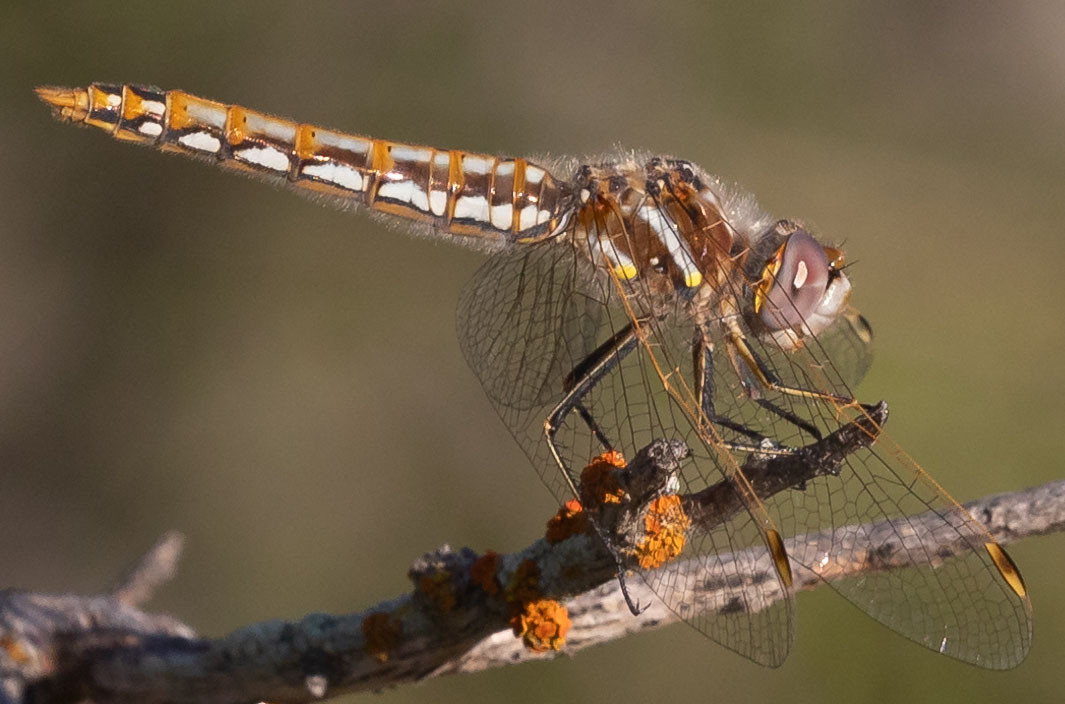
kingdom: Animalia
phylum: Arthropoda
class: Insecta
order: Odonata
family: Libellulidae
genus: Sympetrum
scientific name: Sympetrum corruptum
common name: Variegated meadowhawk
